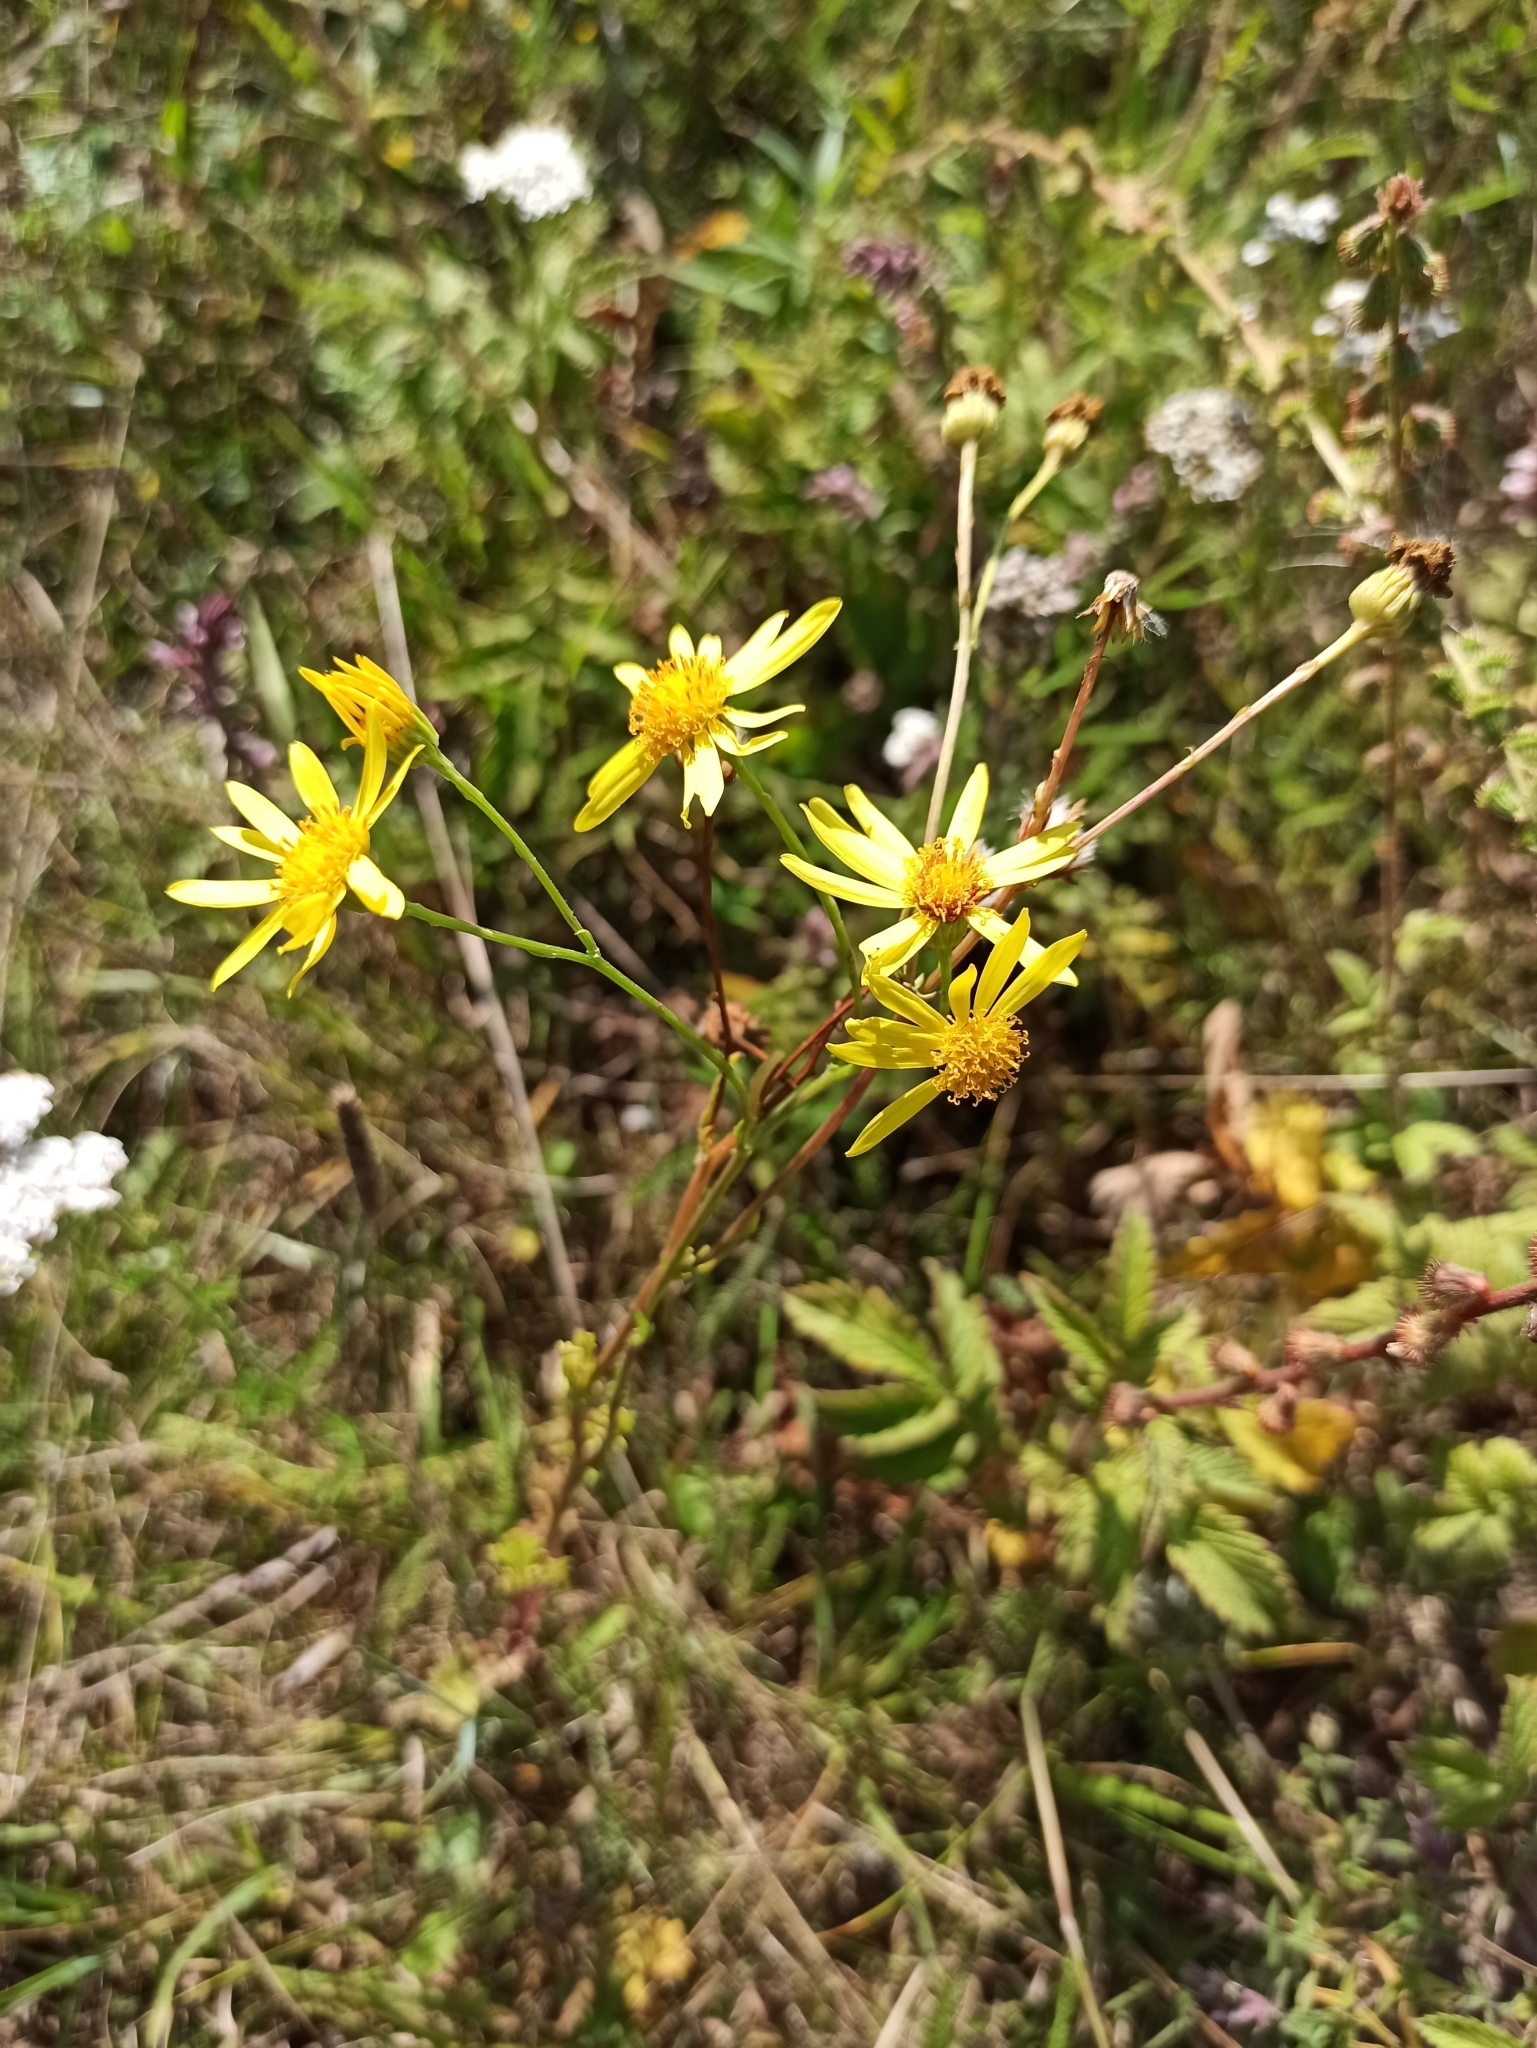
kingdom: Plantae
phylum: Tracheophyta
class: Magnoliopsida
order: Asterales
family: Asteraceae
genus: Jacobaea
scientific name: Jacobaea vulgaris
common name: Stinking willie
